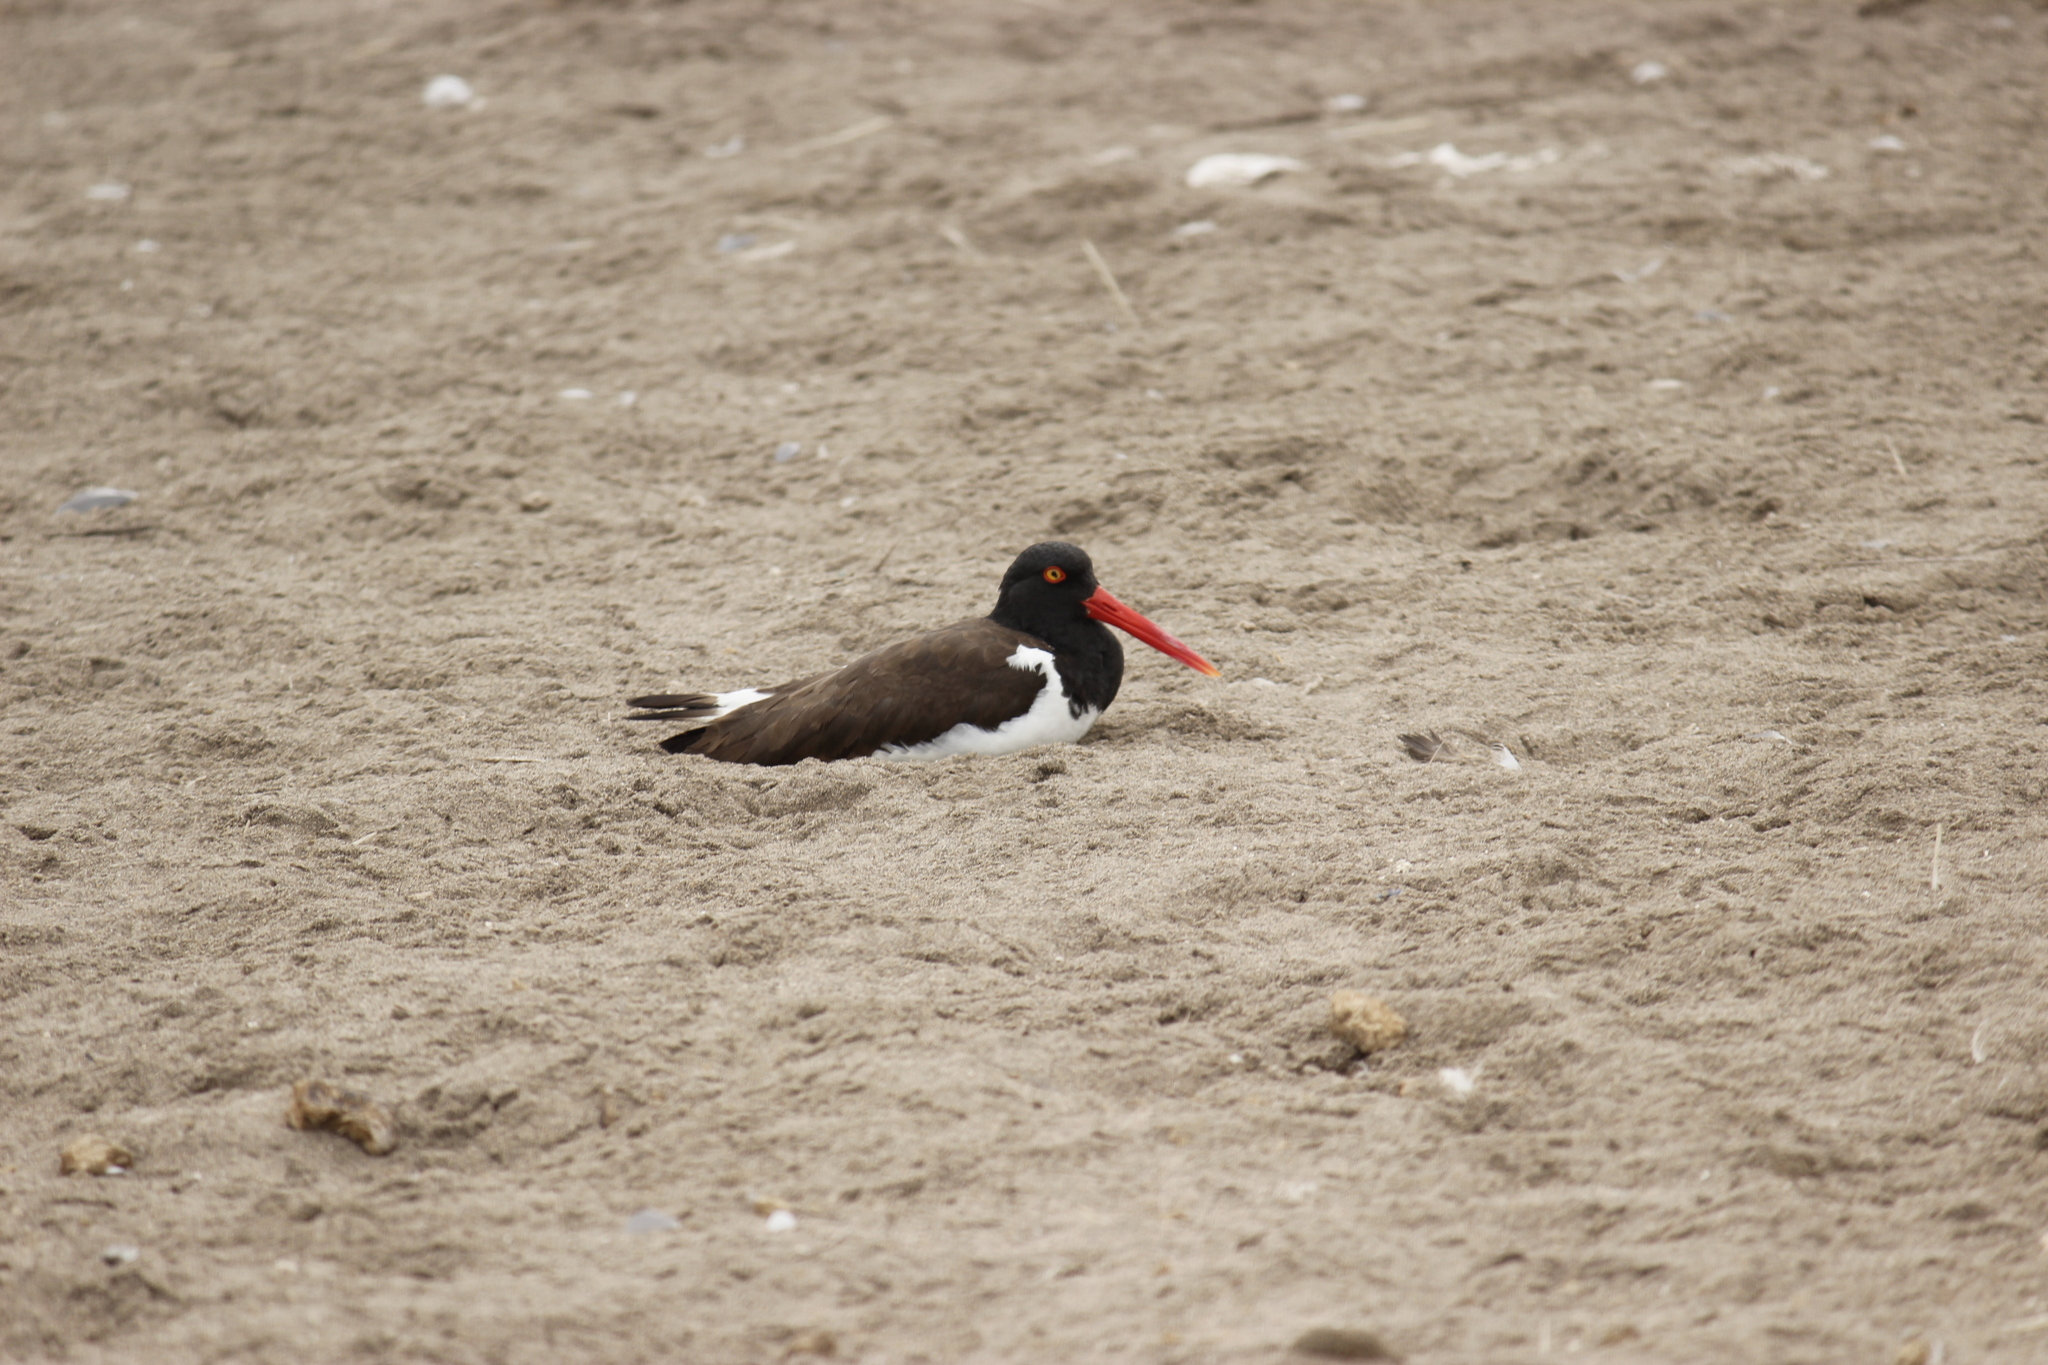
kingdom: Animalia
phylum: Chordata
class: Aves
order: Charadriiformes
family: Haematopodidae
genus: Haematopus
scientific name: Haematopus palliatus
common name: American oystercatcher
